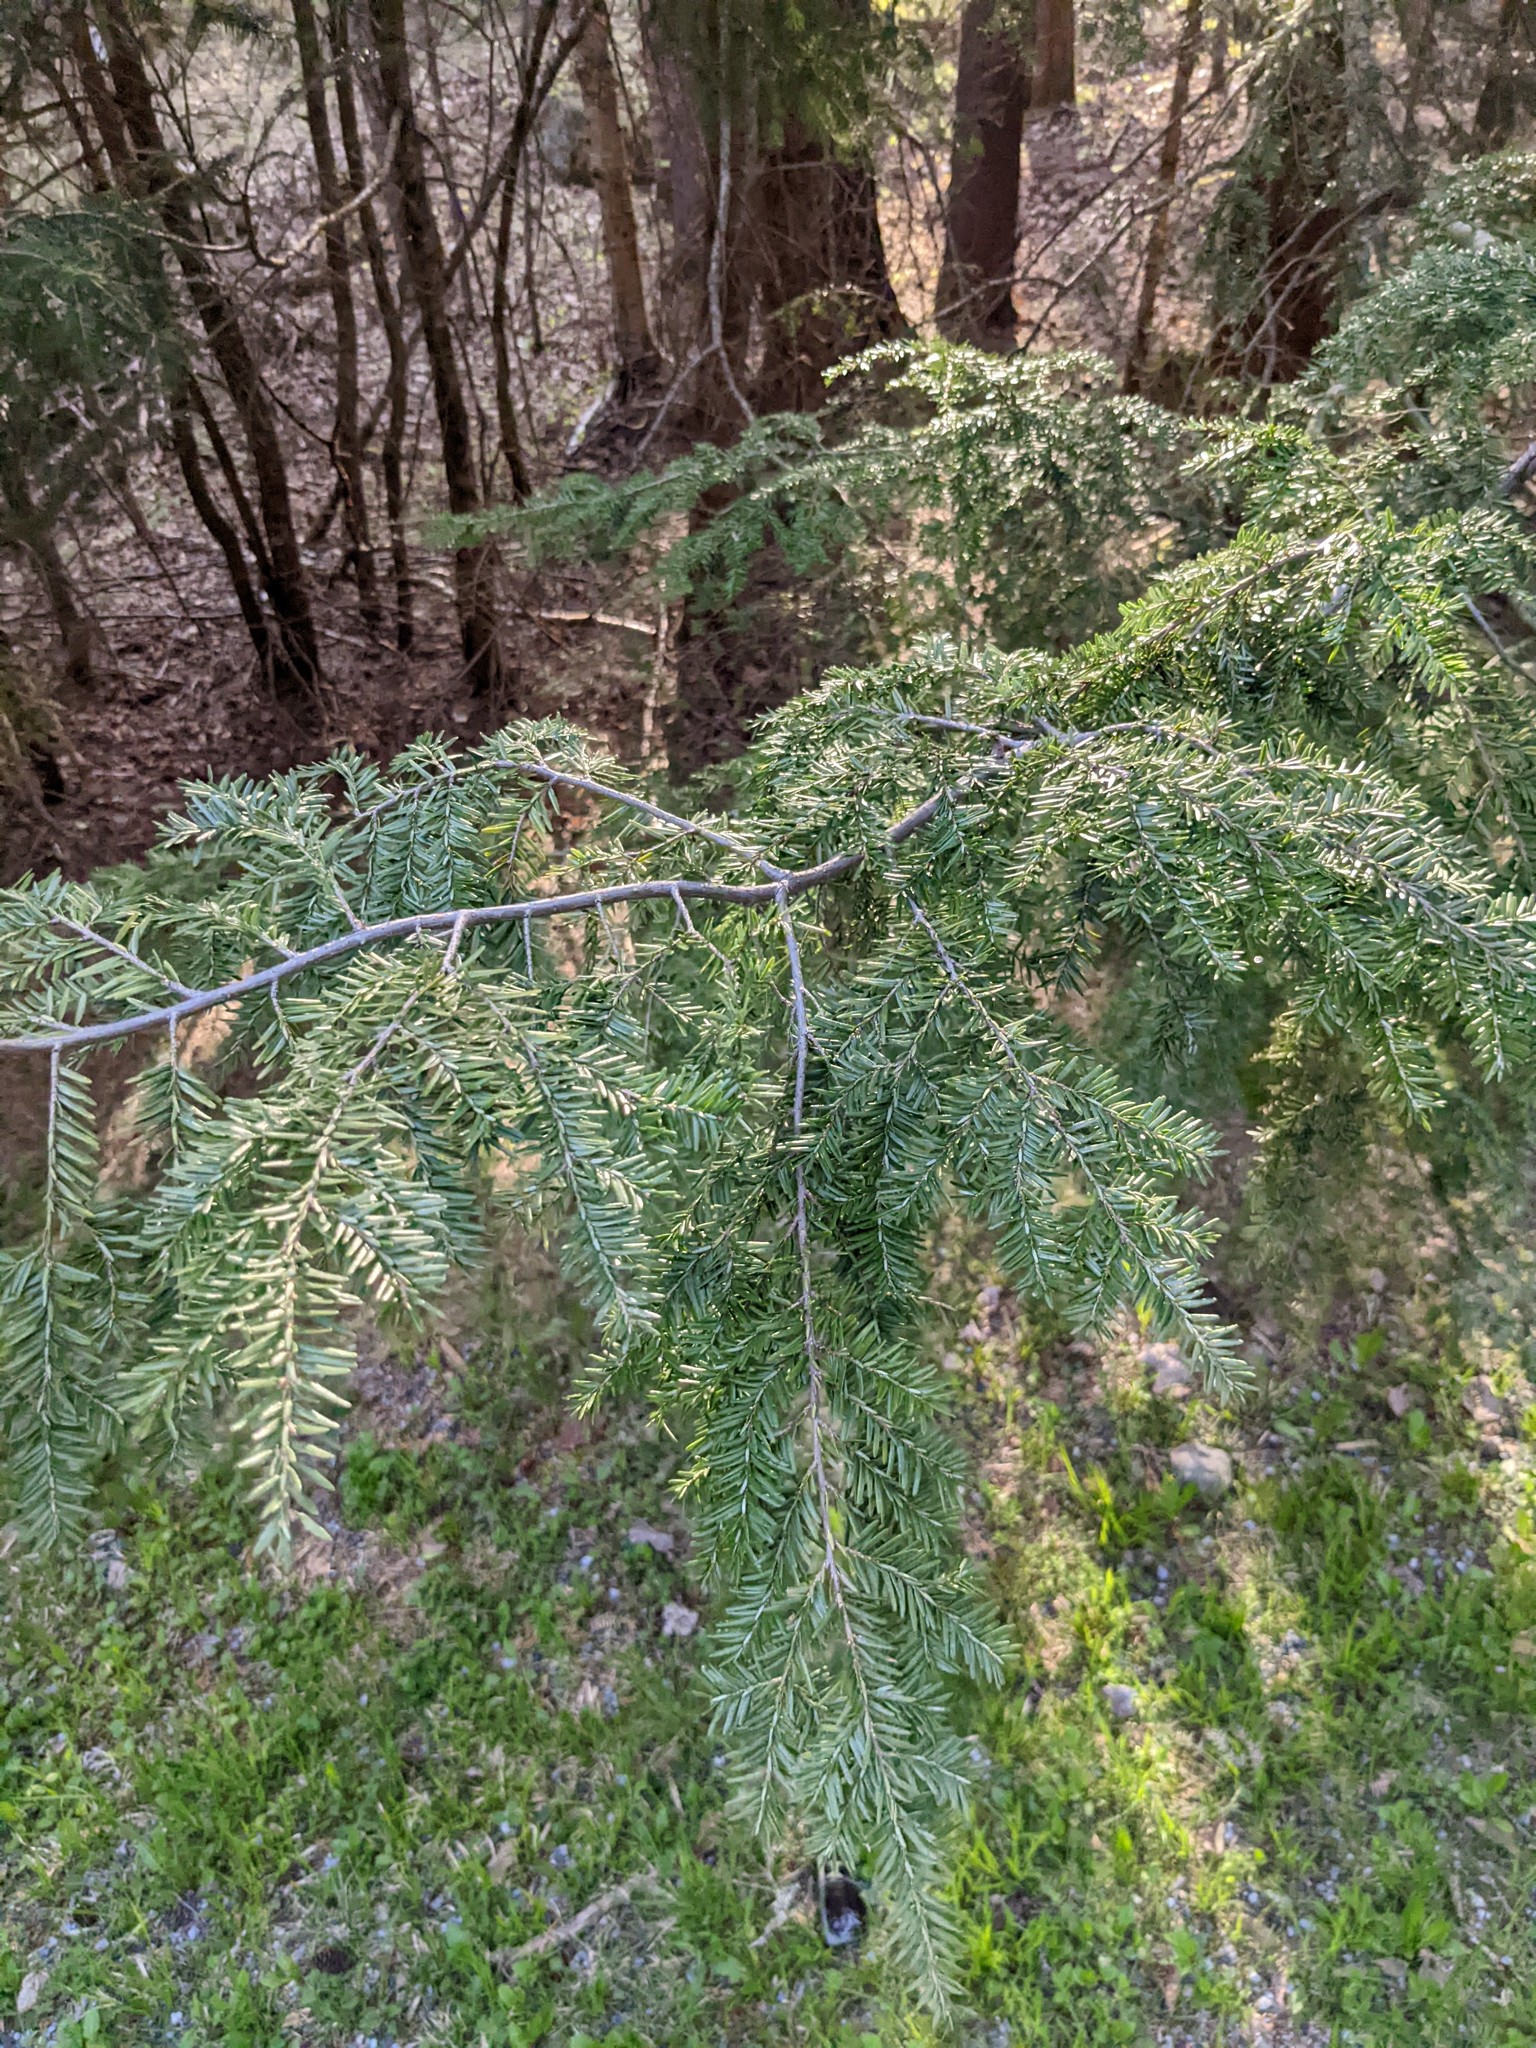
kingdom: Plantae
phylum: Tracheophyta
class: Pinopsida
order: Pinales
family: Pinaceae
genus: Tsuga
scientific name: Tsuga canadensis
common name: Eastern hemlock
